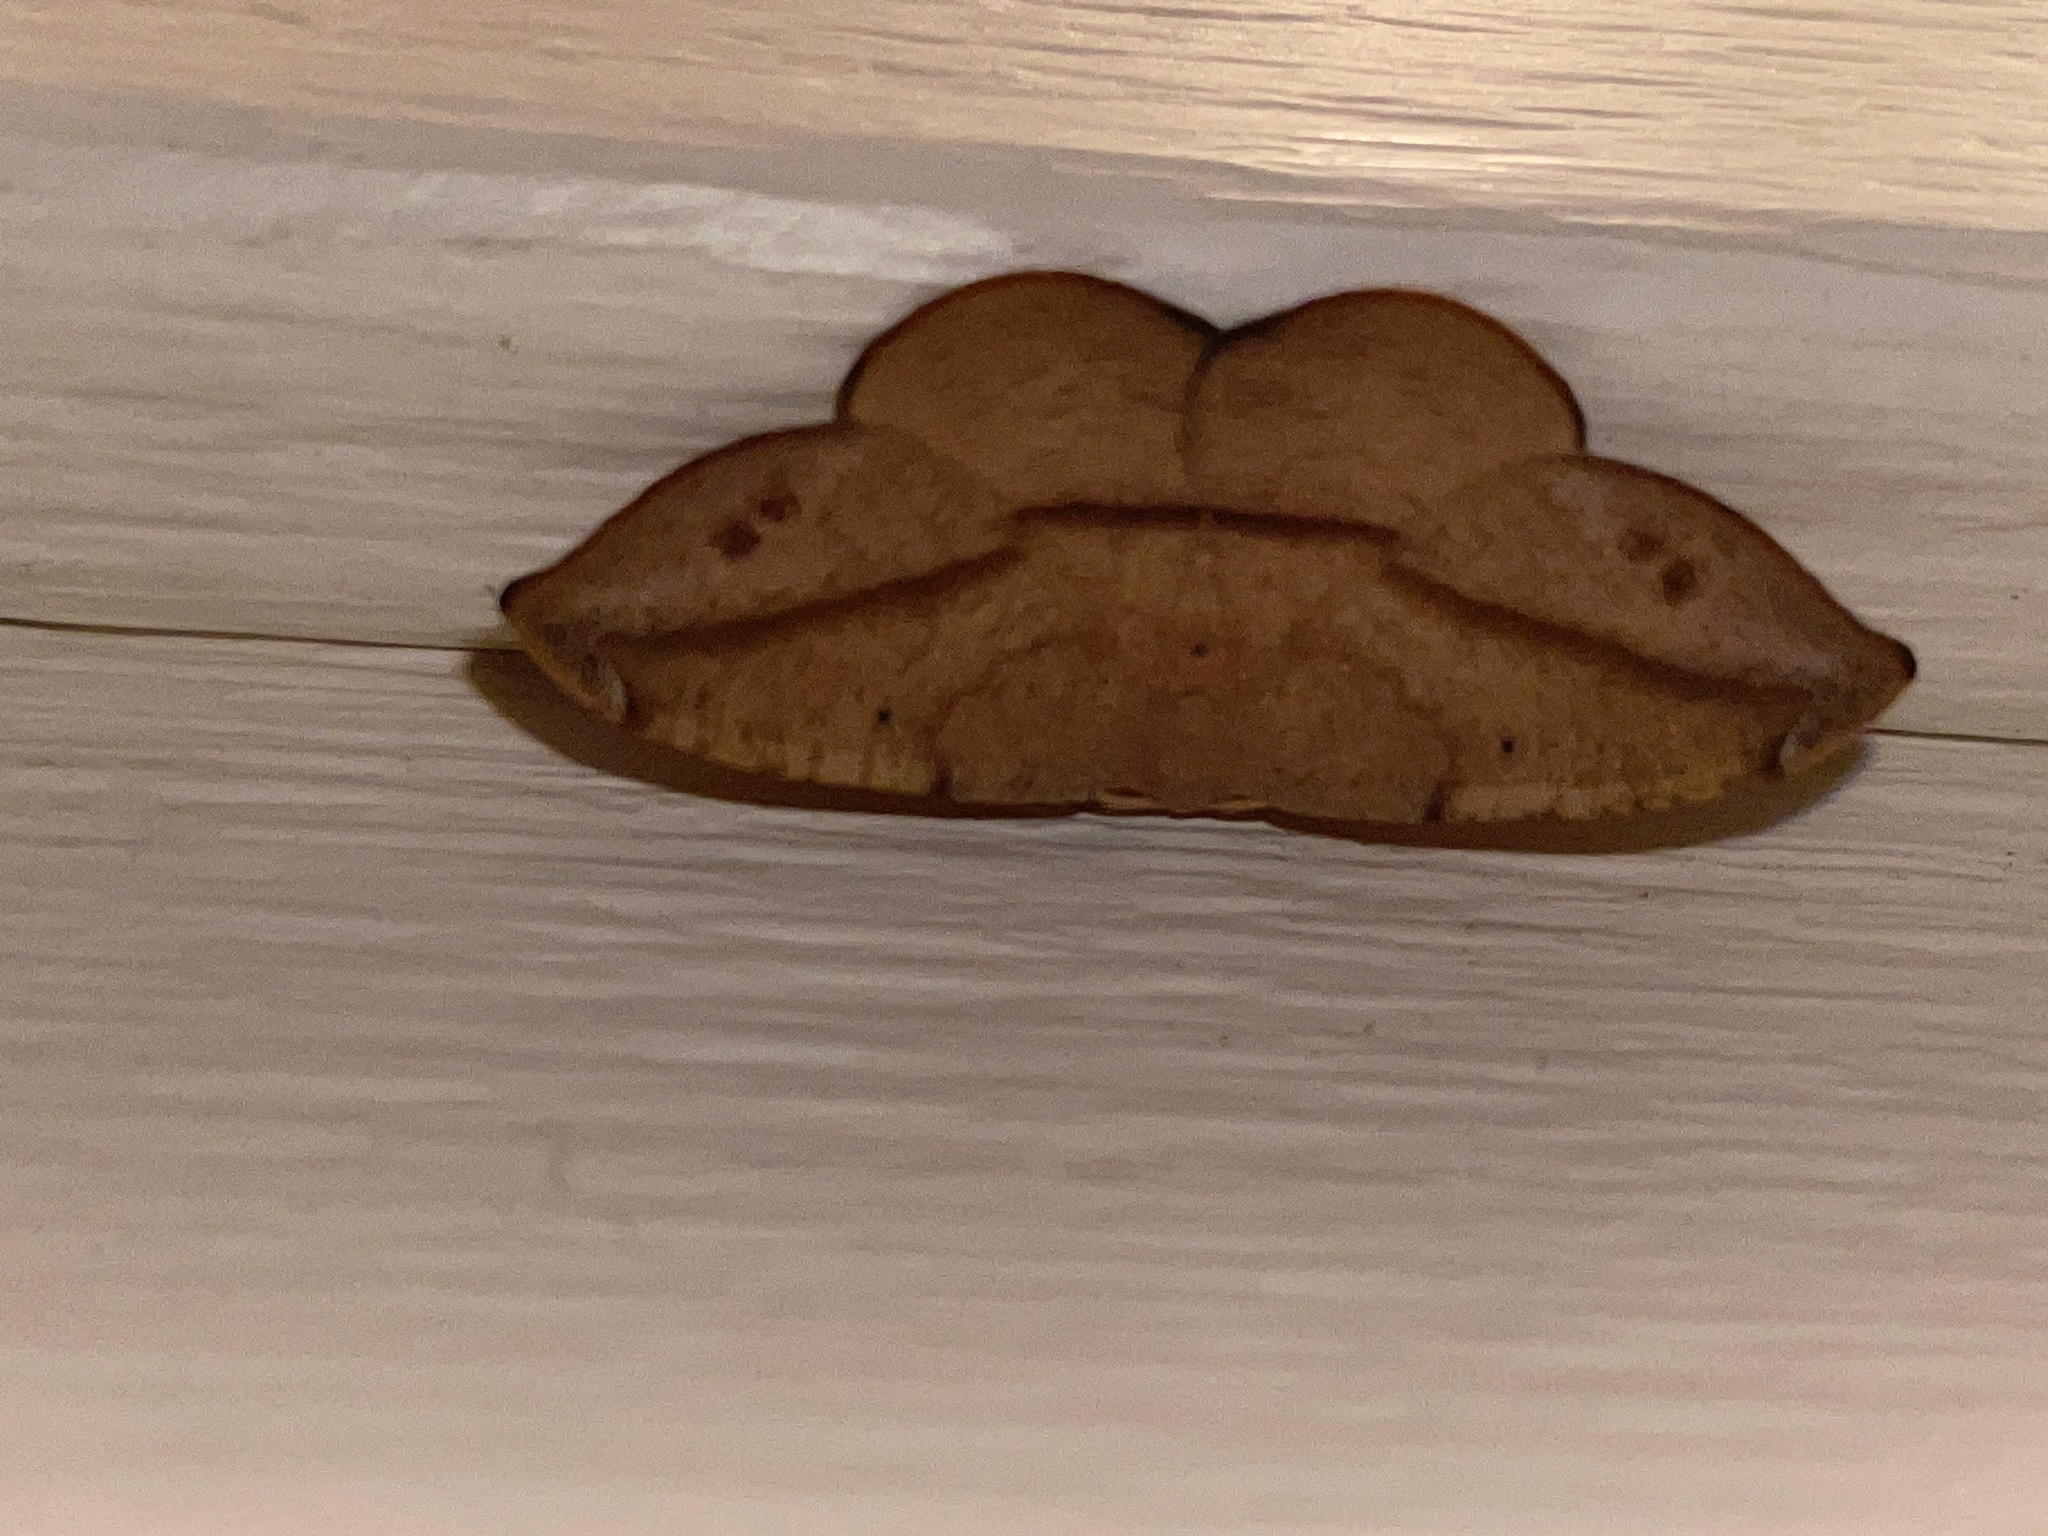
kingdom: Animalia
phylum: Arthropoda
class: Insecta
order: Lepidoptera
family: Geometridae
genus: Patalene
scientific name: Patalene olyzonaria
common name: Juniper geometer moth
